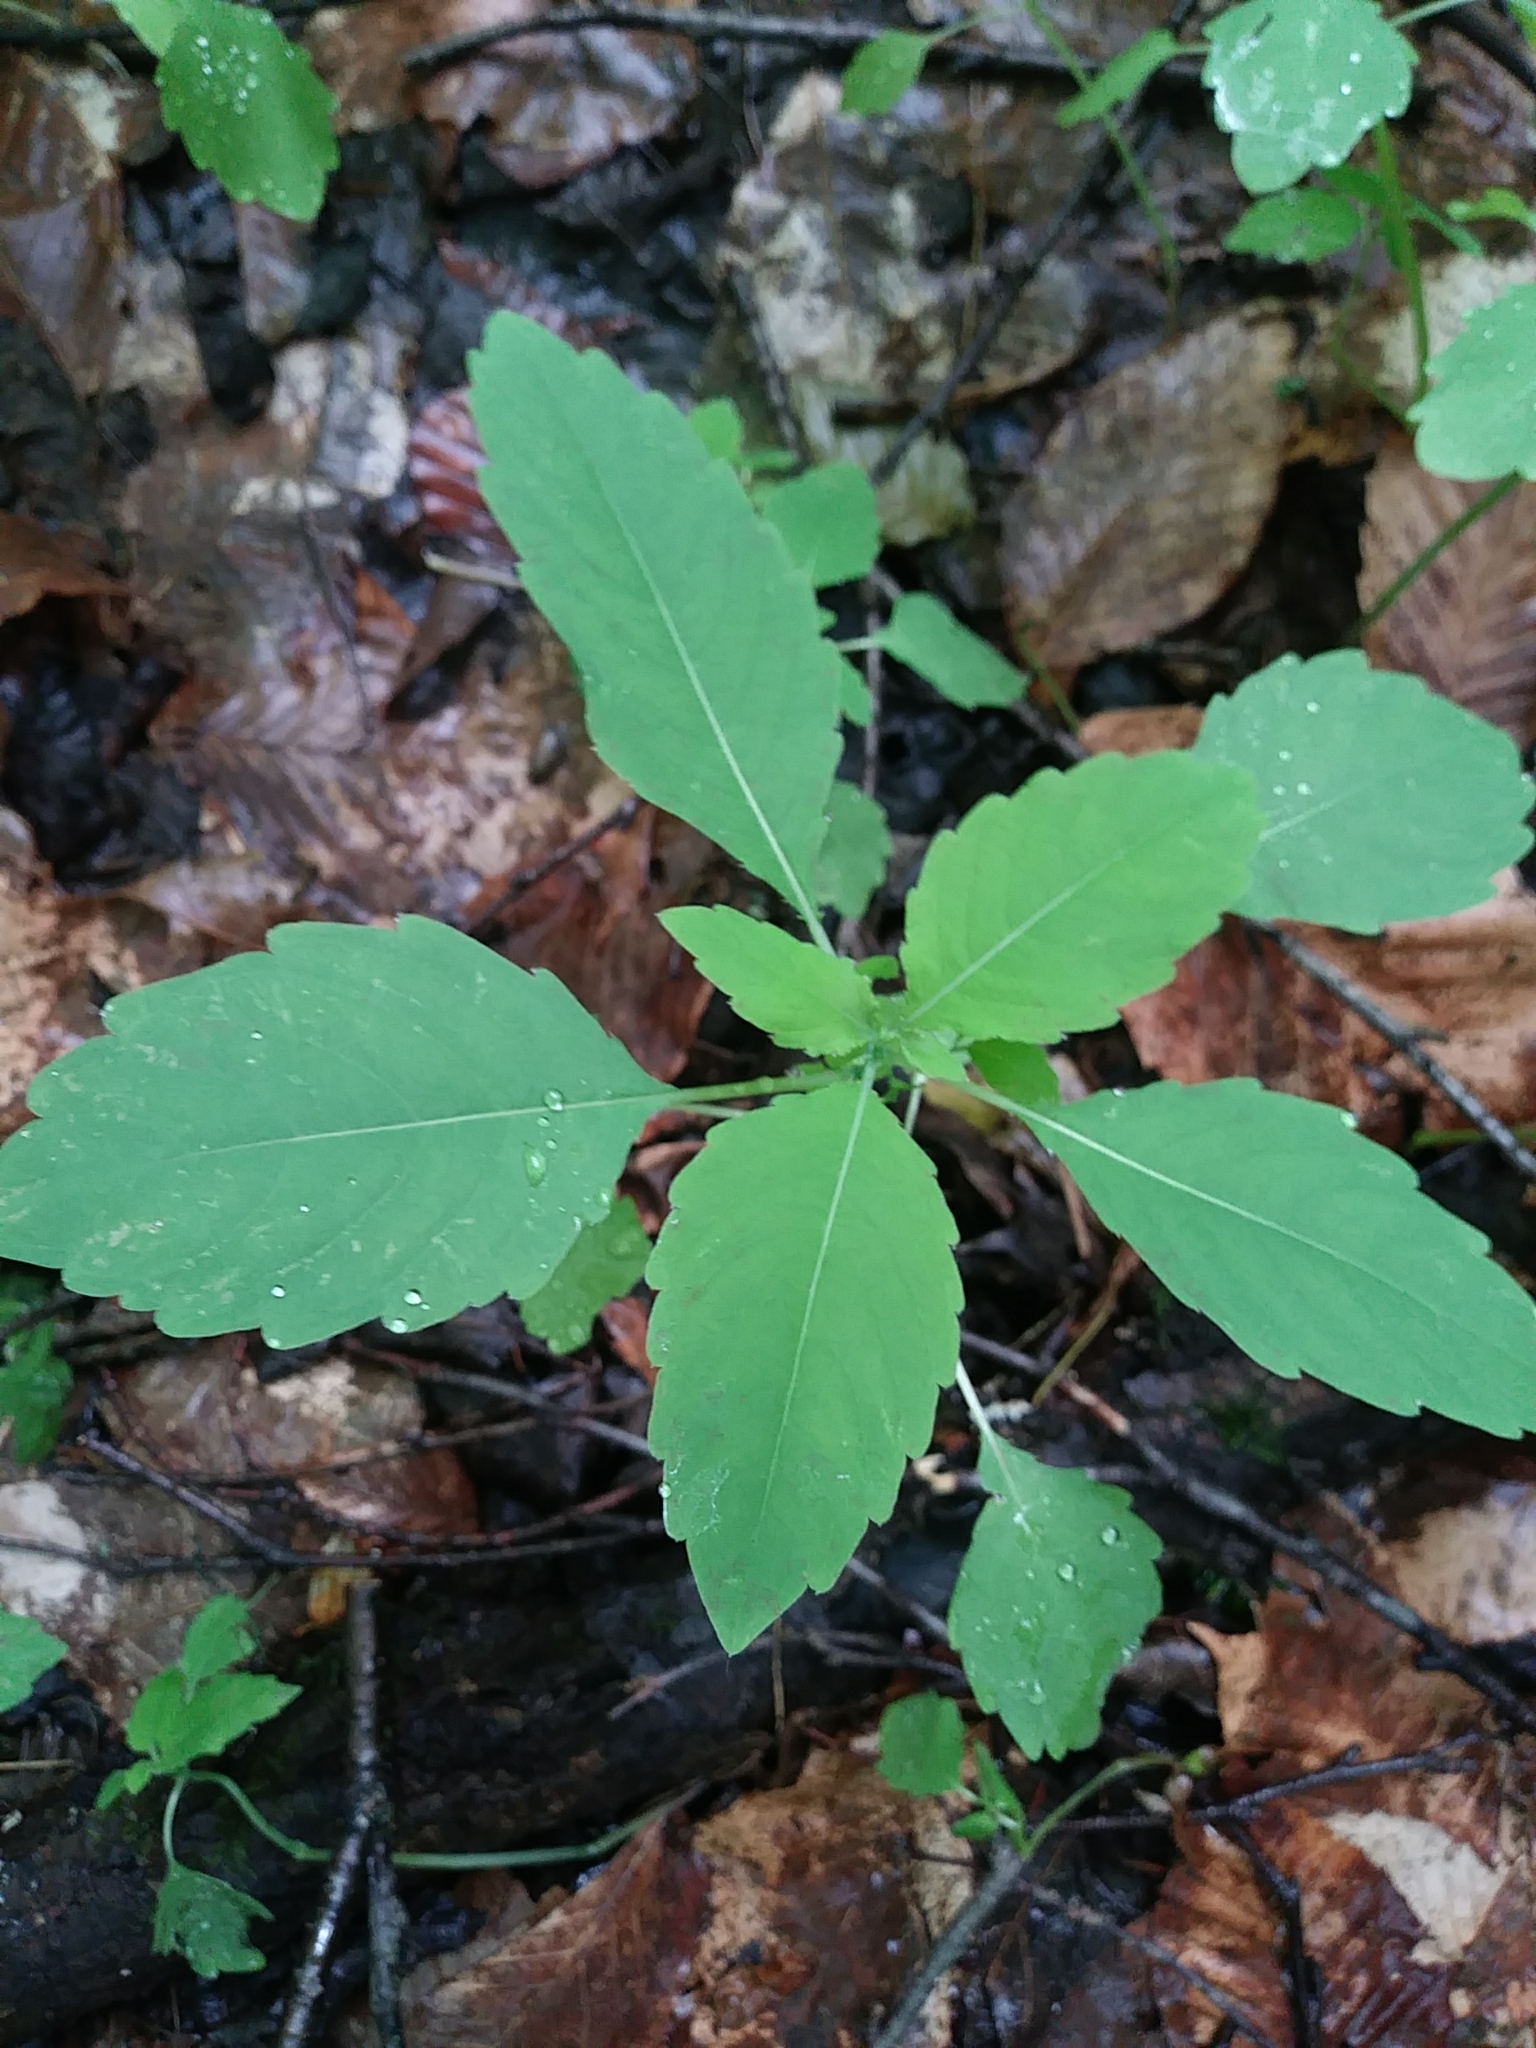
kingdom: Plantae
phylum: Tracheophyta
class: Magnoliopsida
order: Ericales
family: Balsaminaceae
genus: Impatiens
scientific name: Impatiens capensis
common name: Orange balsam
